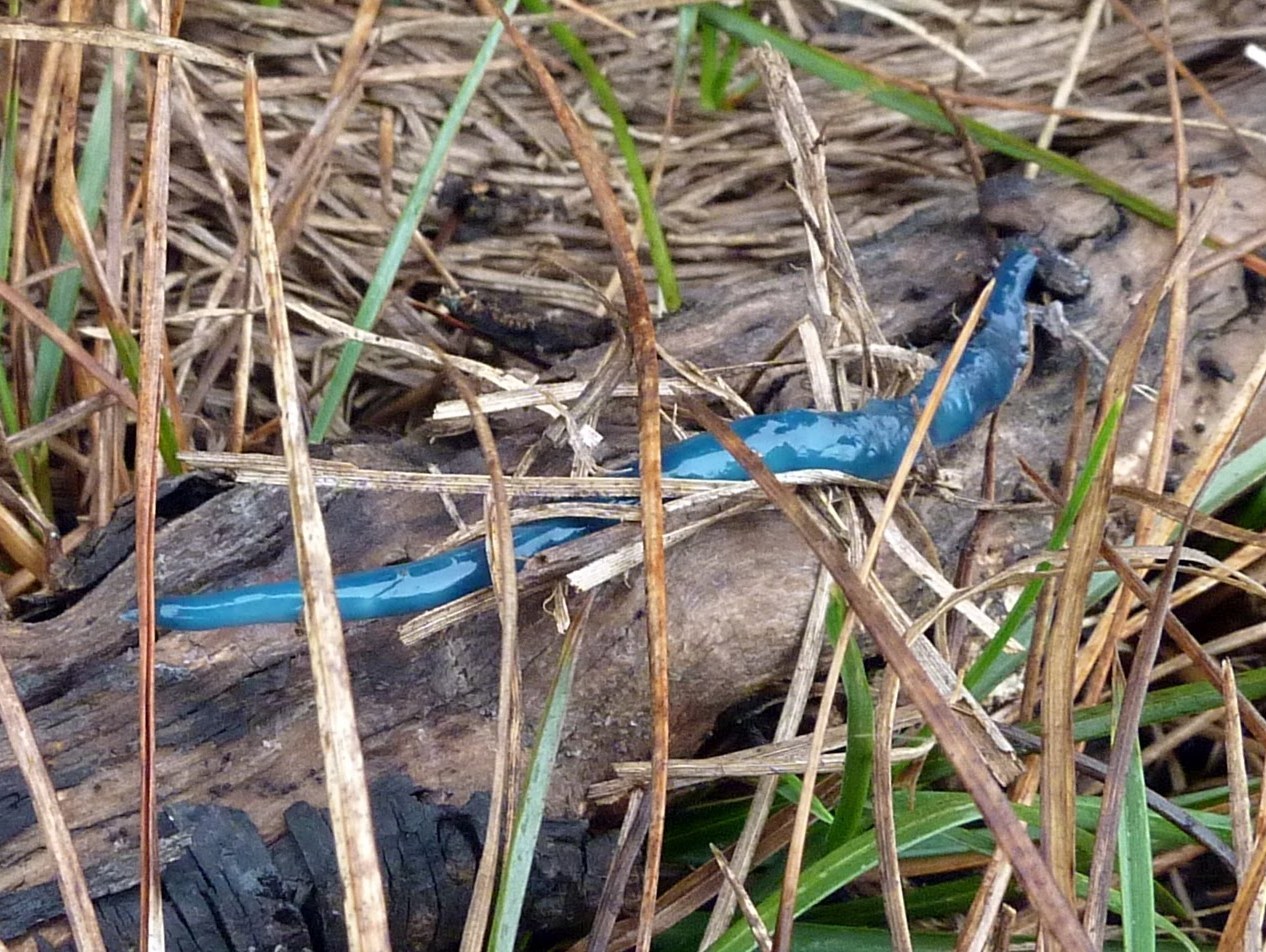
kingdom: Animalia
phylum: Platyhelminthes
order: Tricladida
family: Geoplanidae
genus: Caenoplana
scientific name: Caenoplana coerulea
